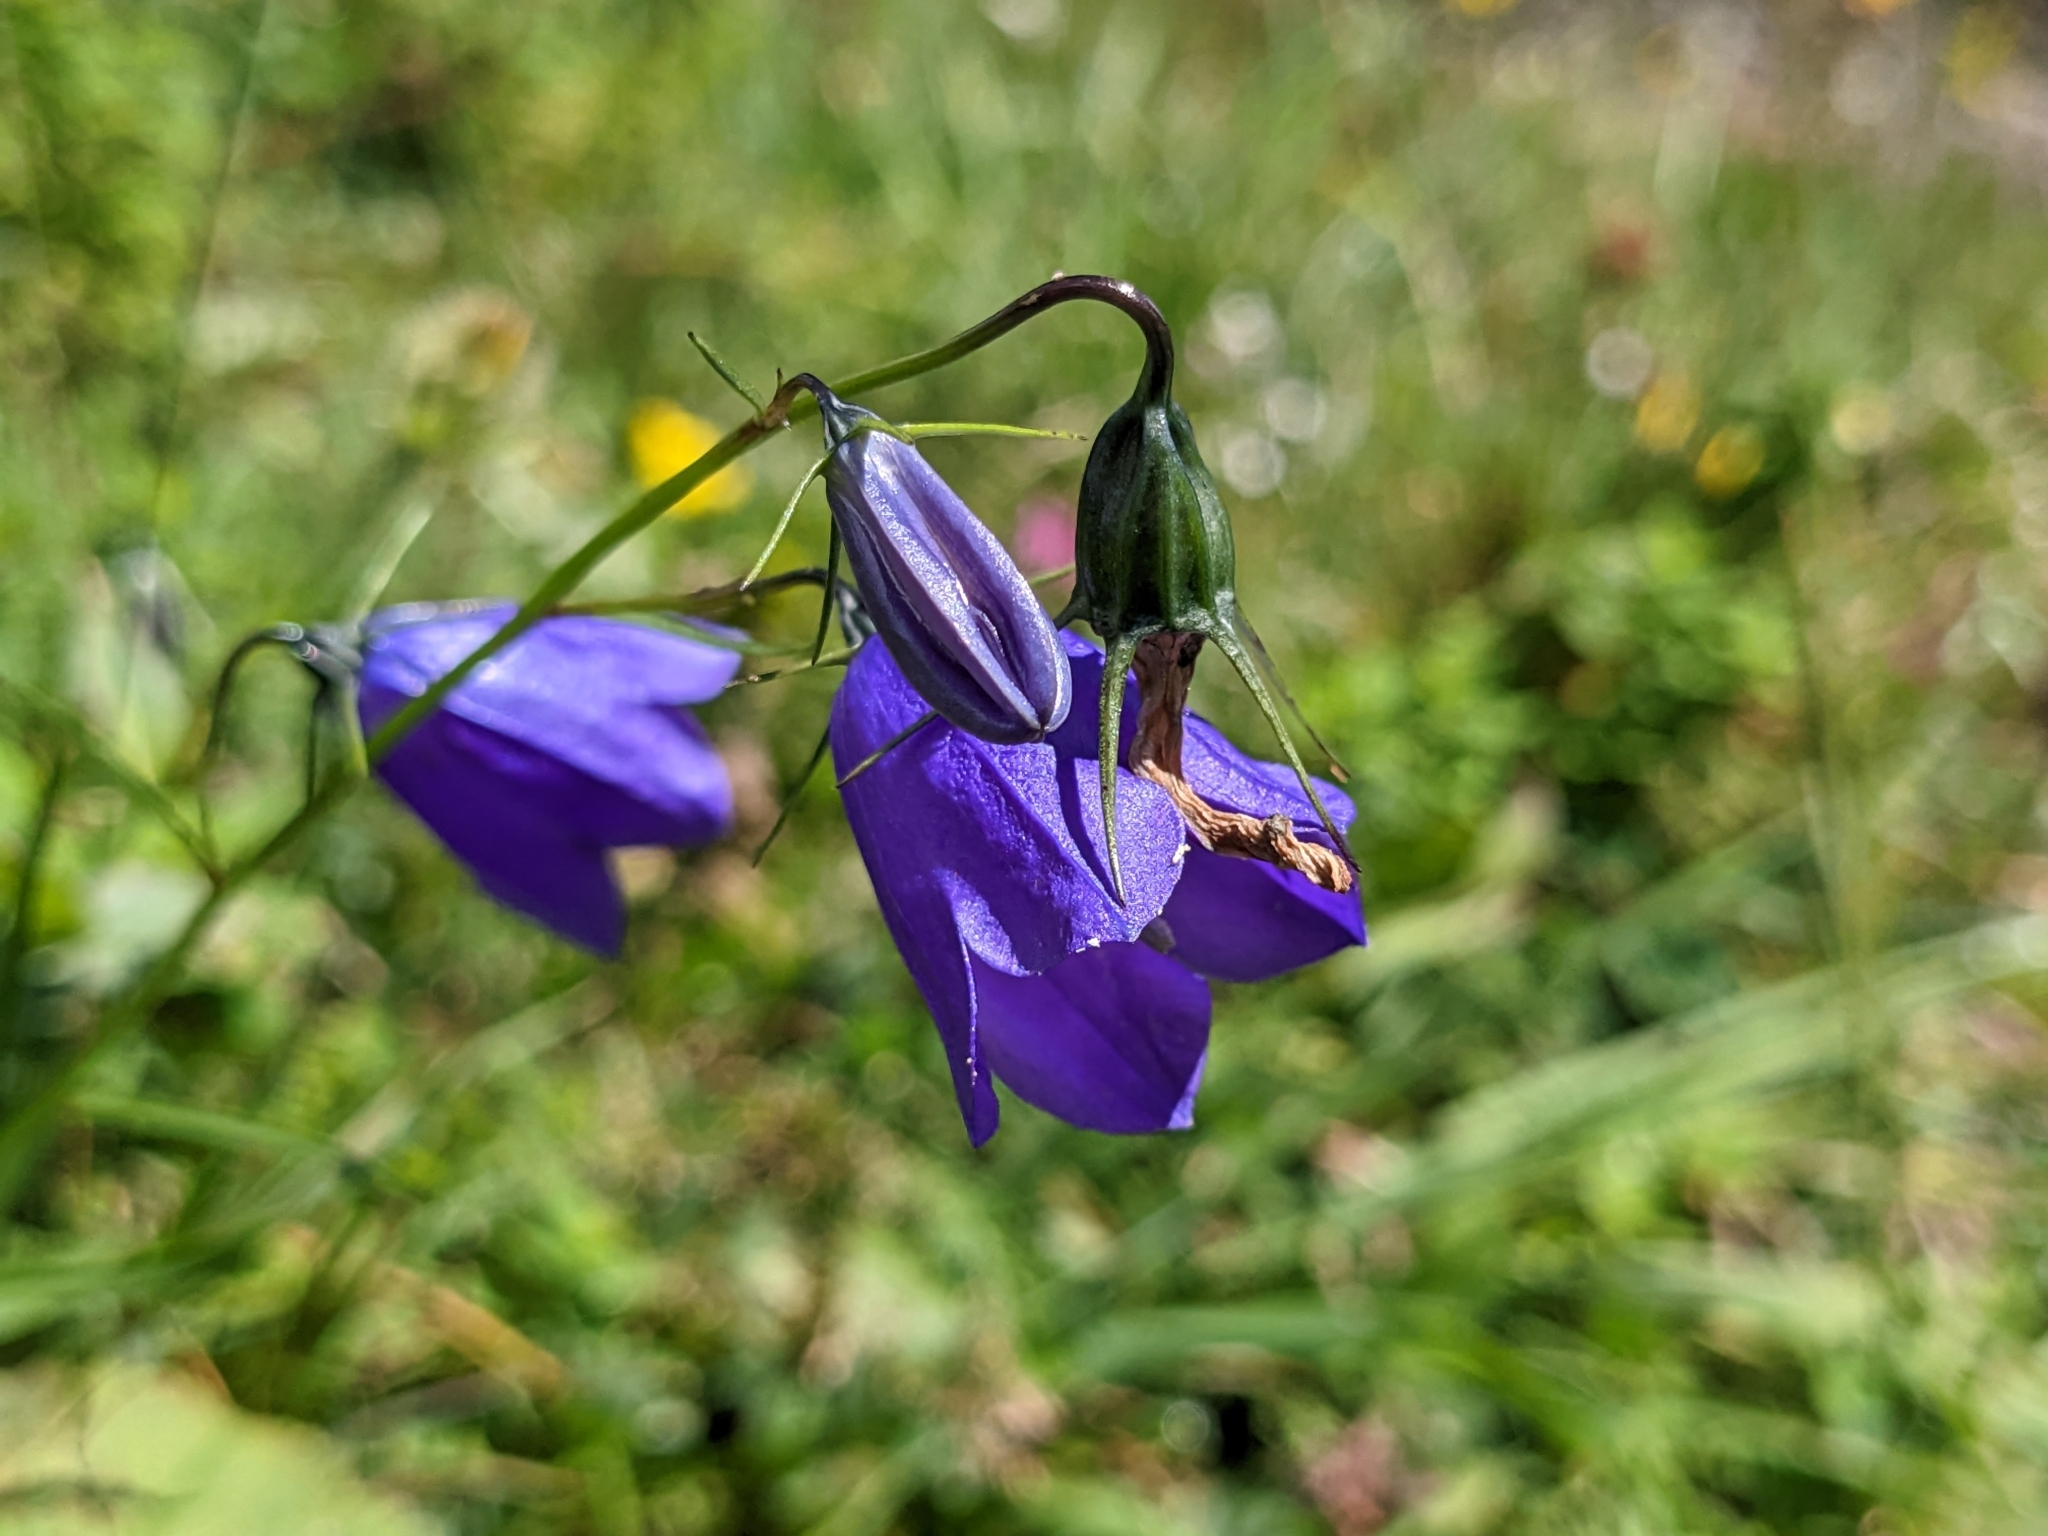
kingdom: Plantae
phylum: Tracheophyta
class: Magnoliopsida
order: Asterales
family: Campanulaceae
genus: Campanula
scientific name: Campanula scheuchzeri
